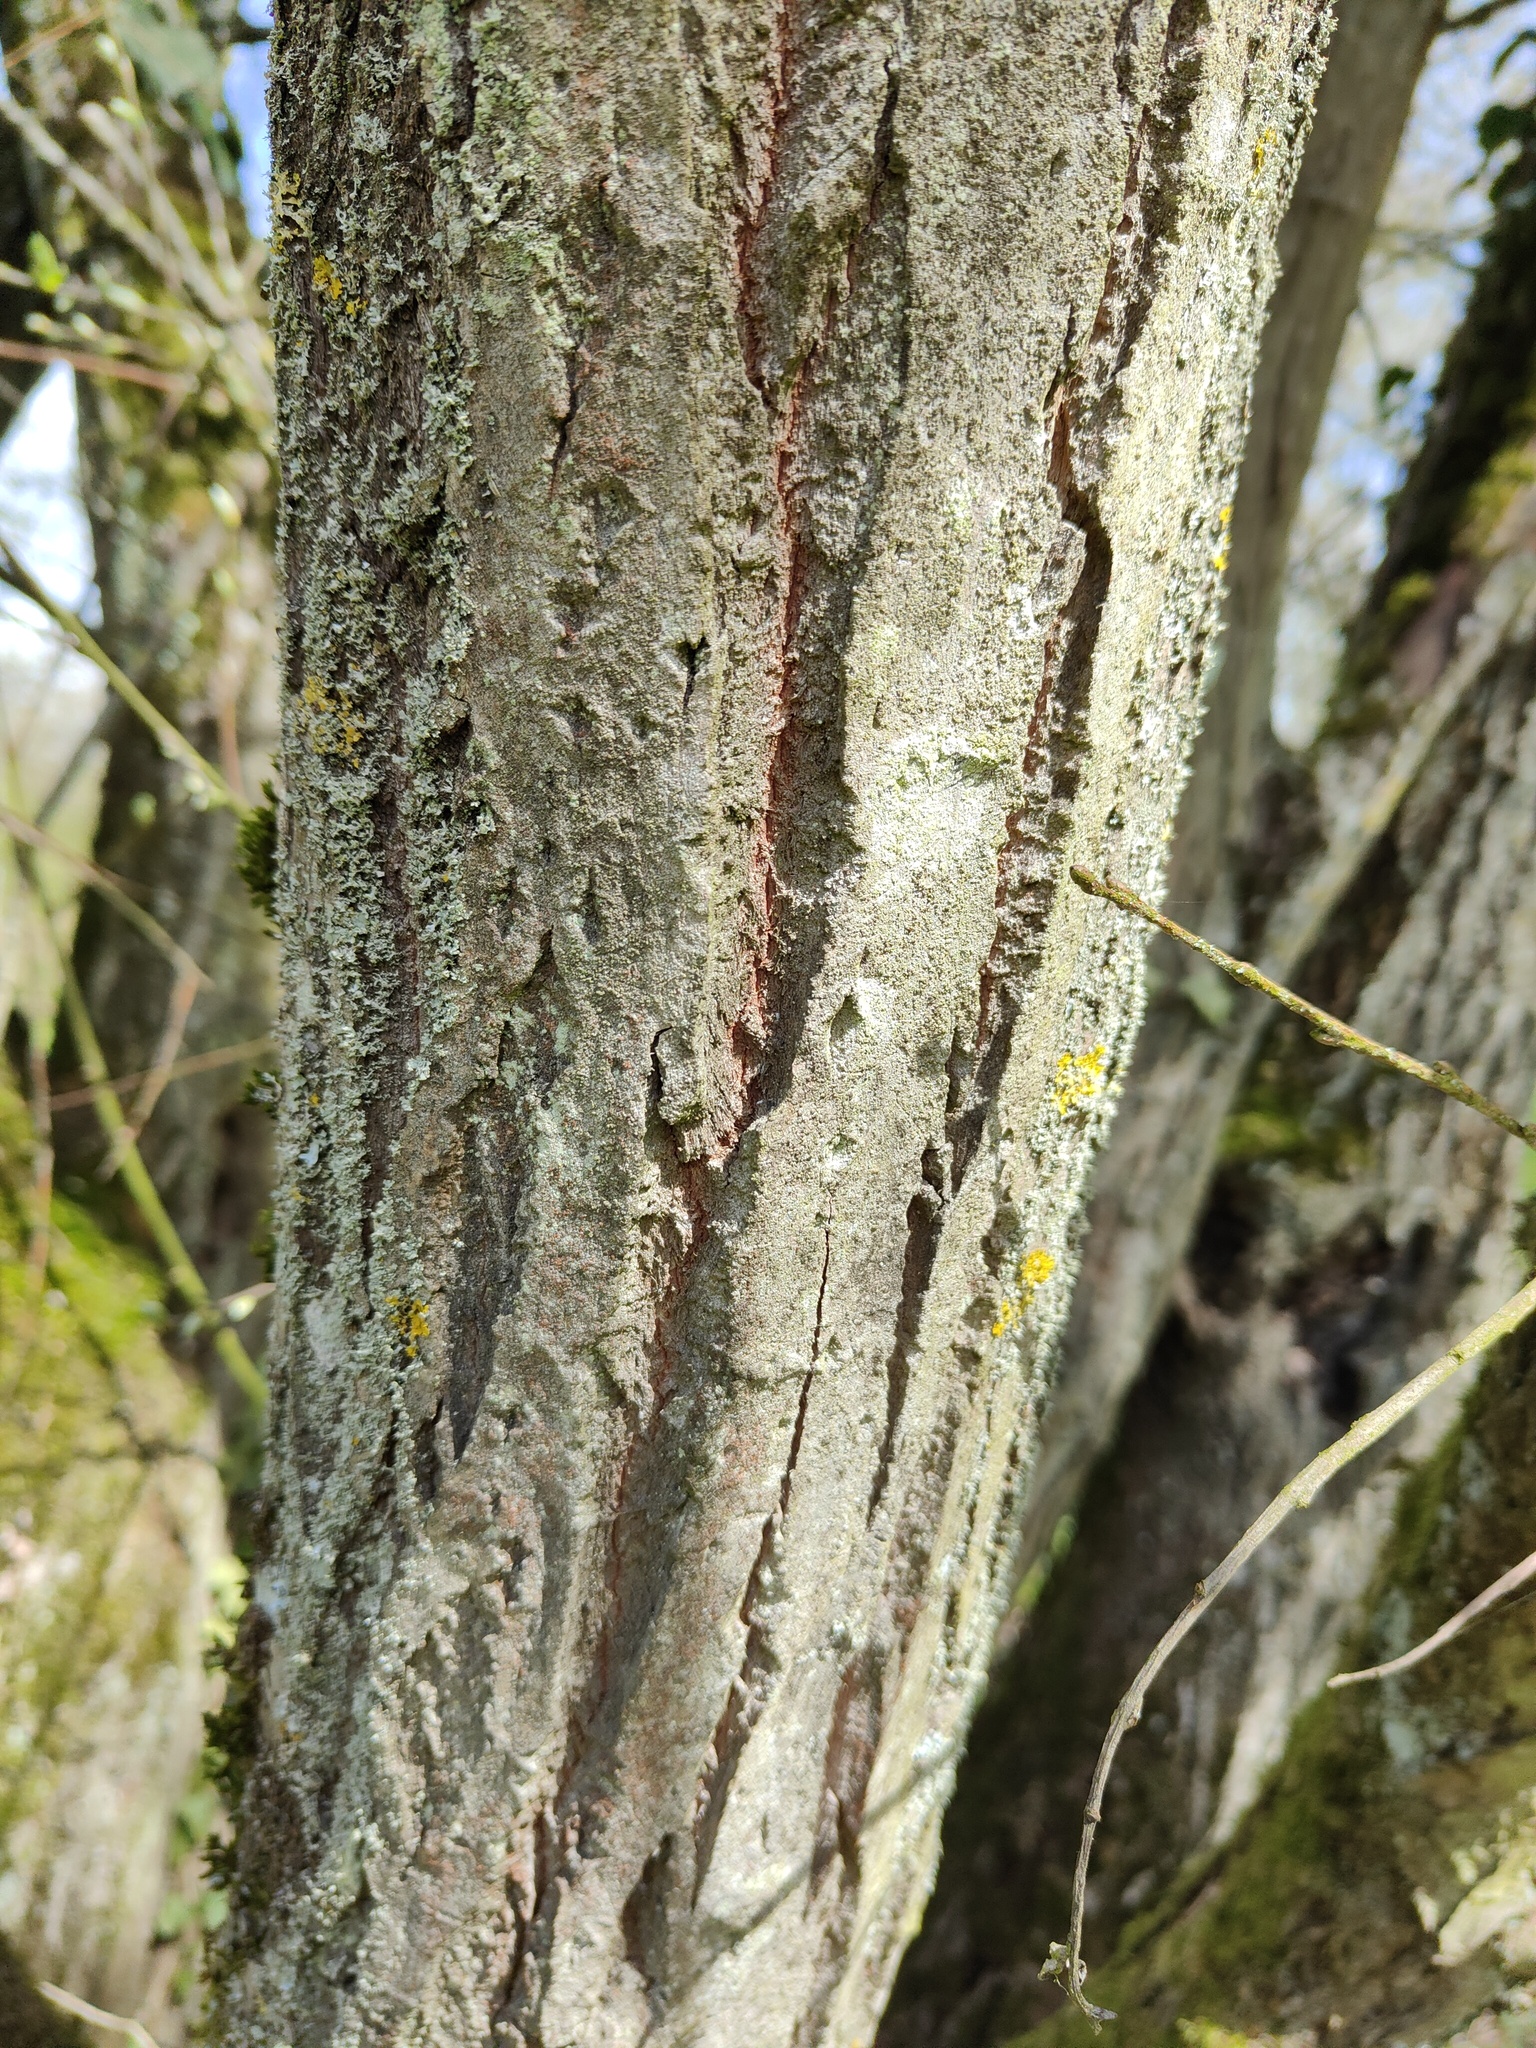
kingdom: Plantae
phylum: Tracheophyta
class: Magnoliopsida
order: Malpighiales
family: Salicaceae
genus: Salix
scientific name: Salix caprea
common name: Goat willow
